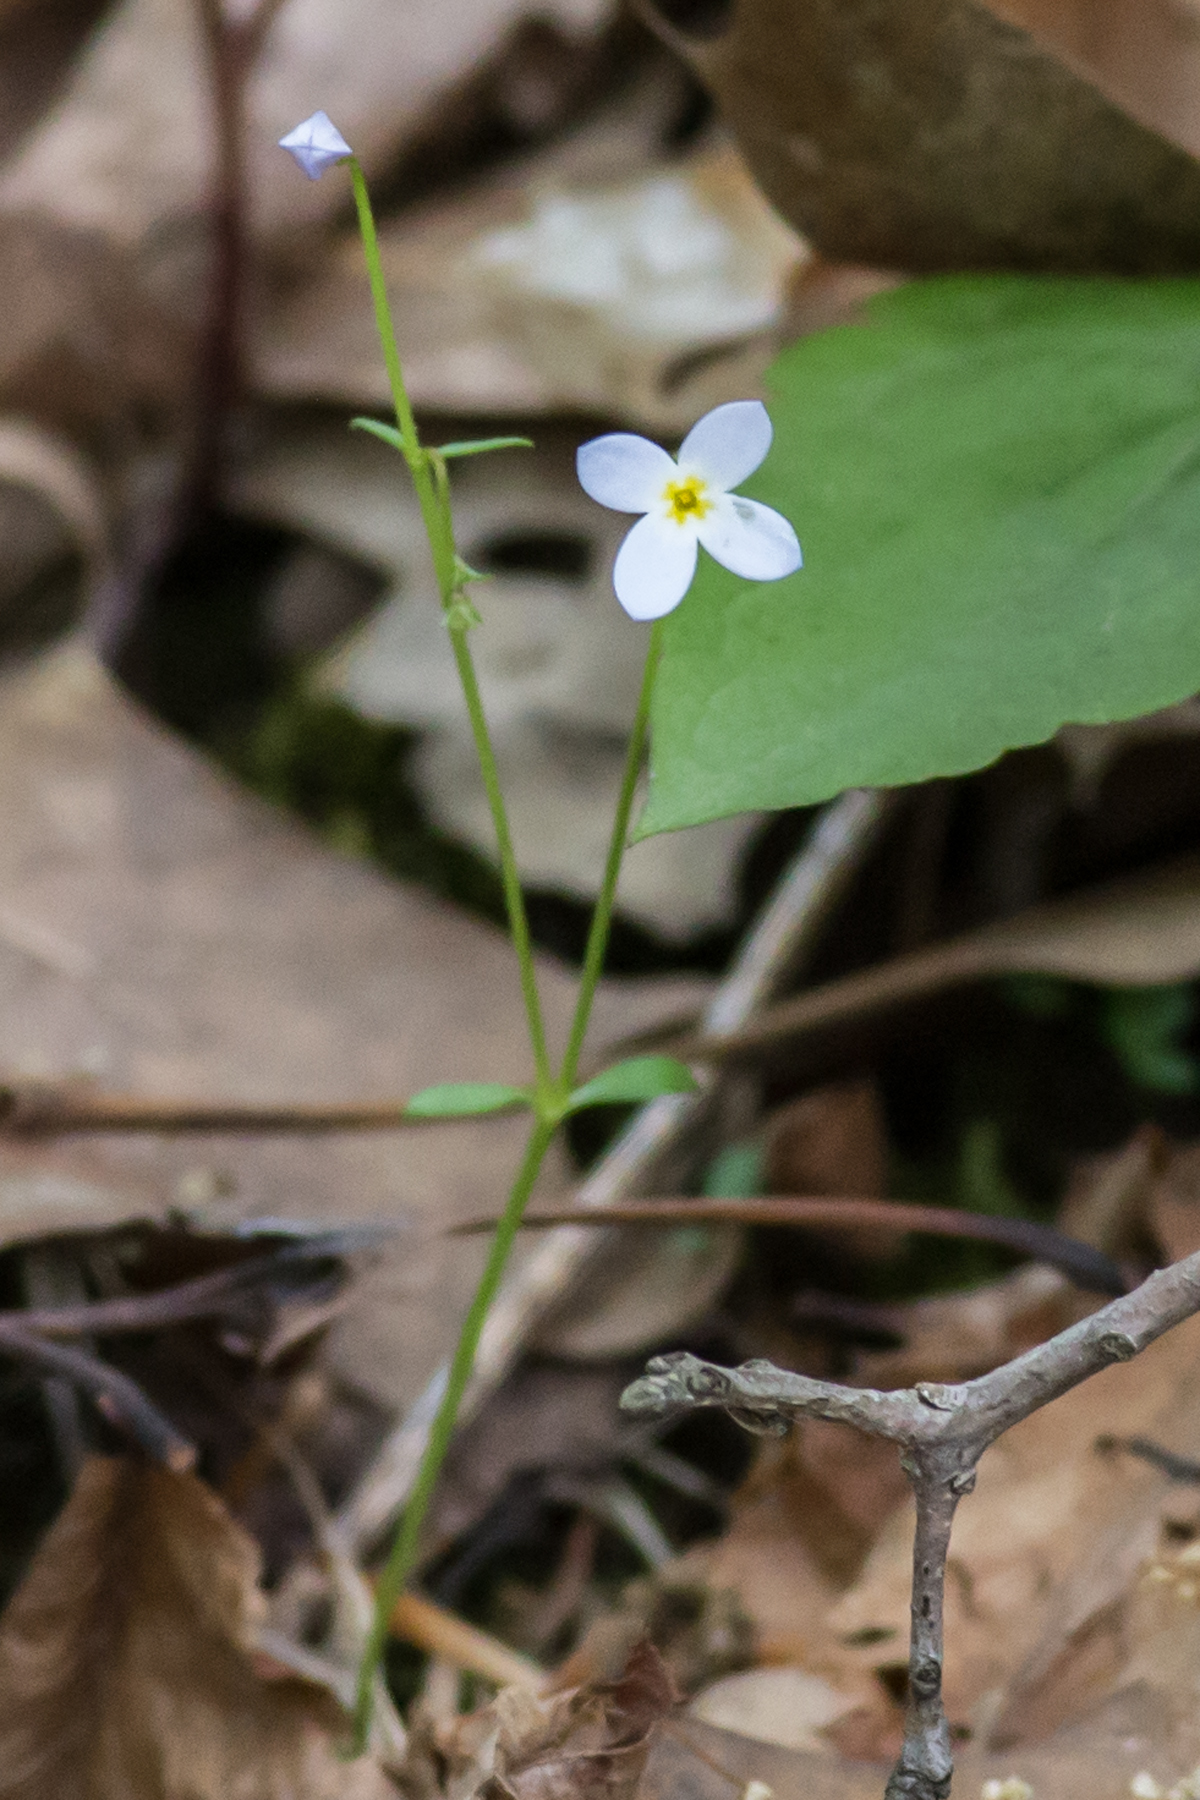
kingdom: Plantae
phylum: Tracheophyta
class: Magnoliopsida
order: Gentianales
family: Rubiaceae
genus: Houstonia
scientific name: Houstonia caerulea
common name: Bluets
